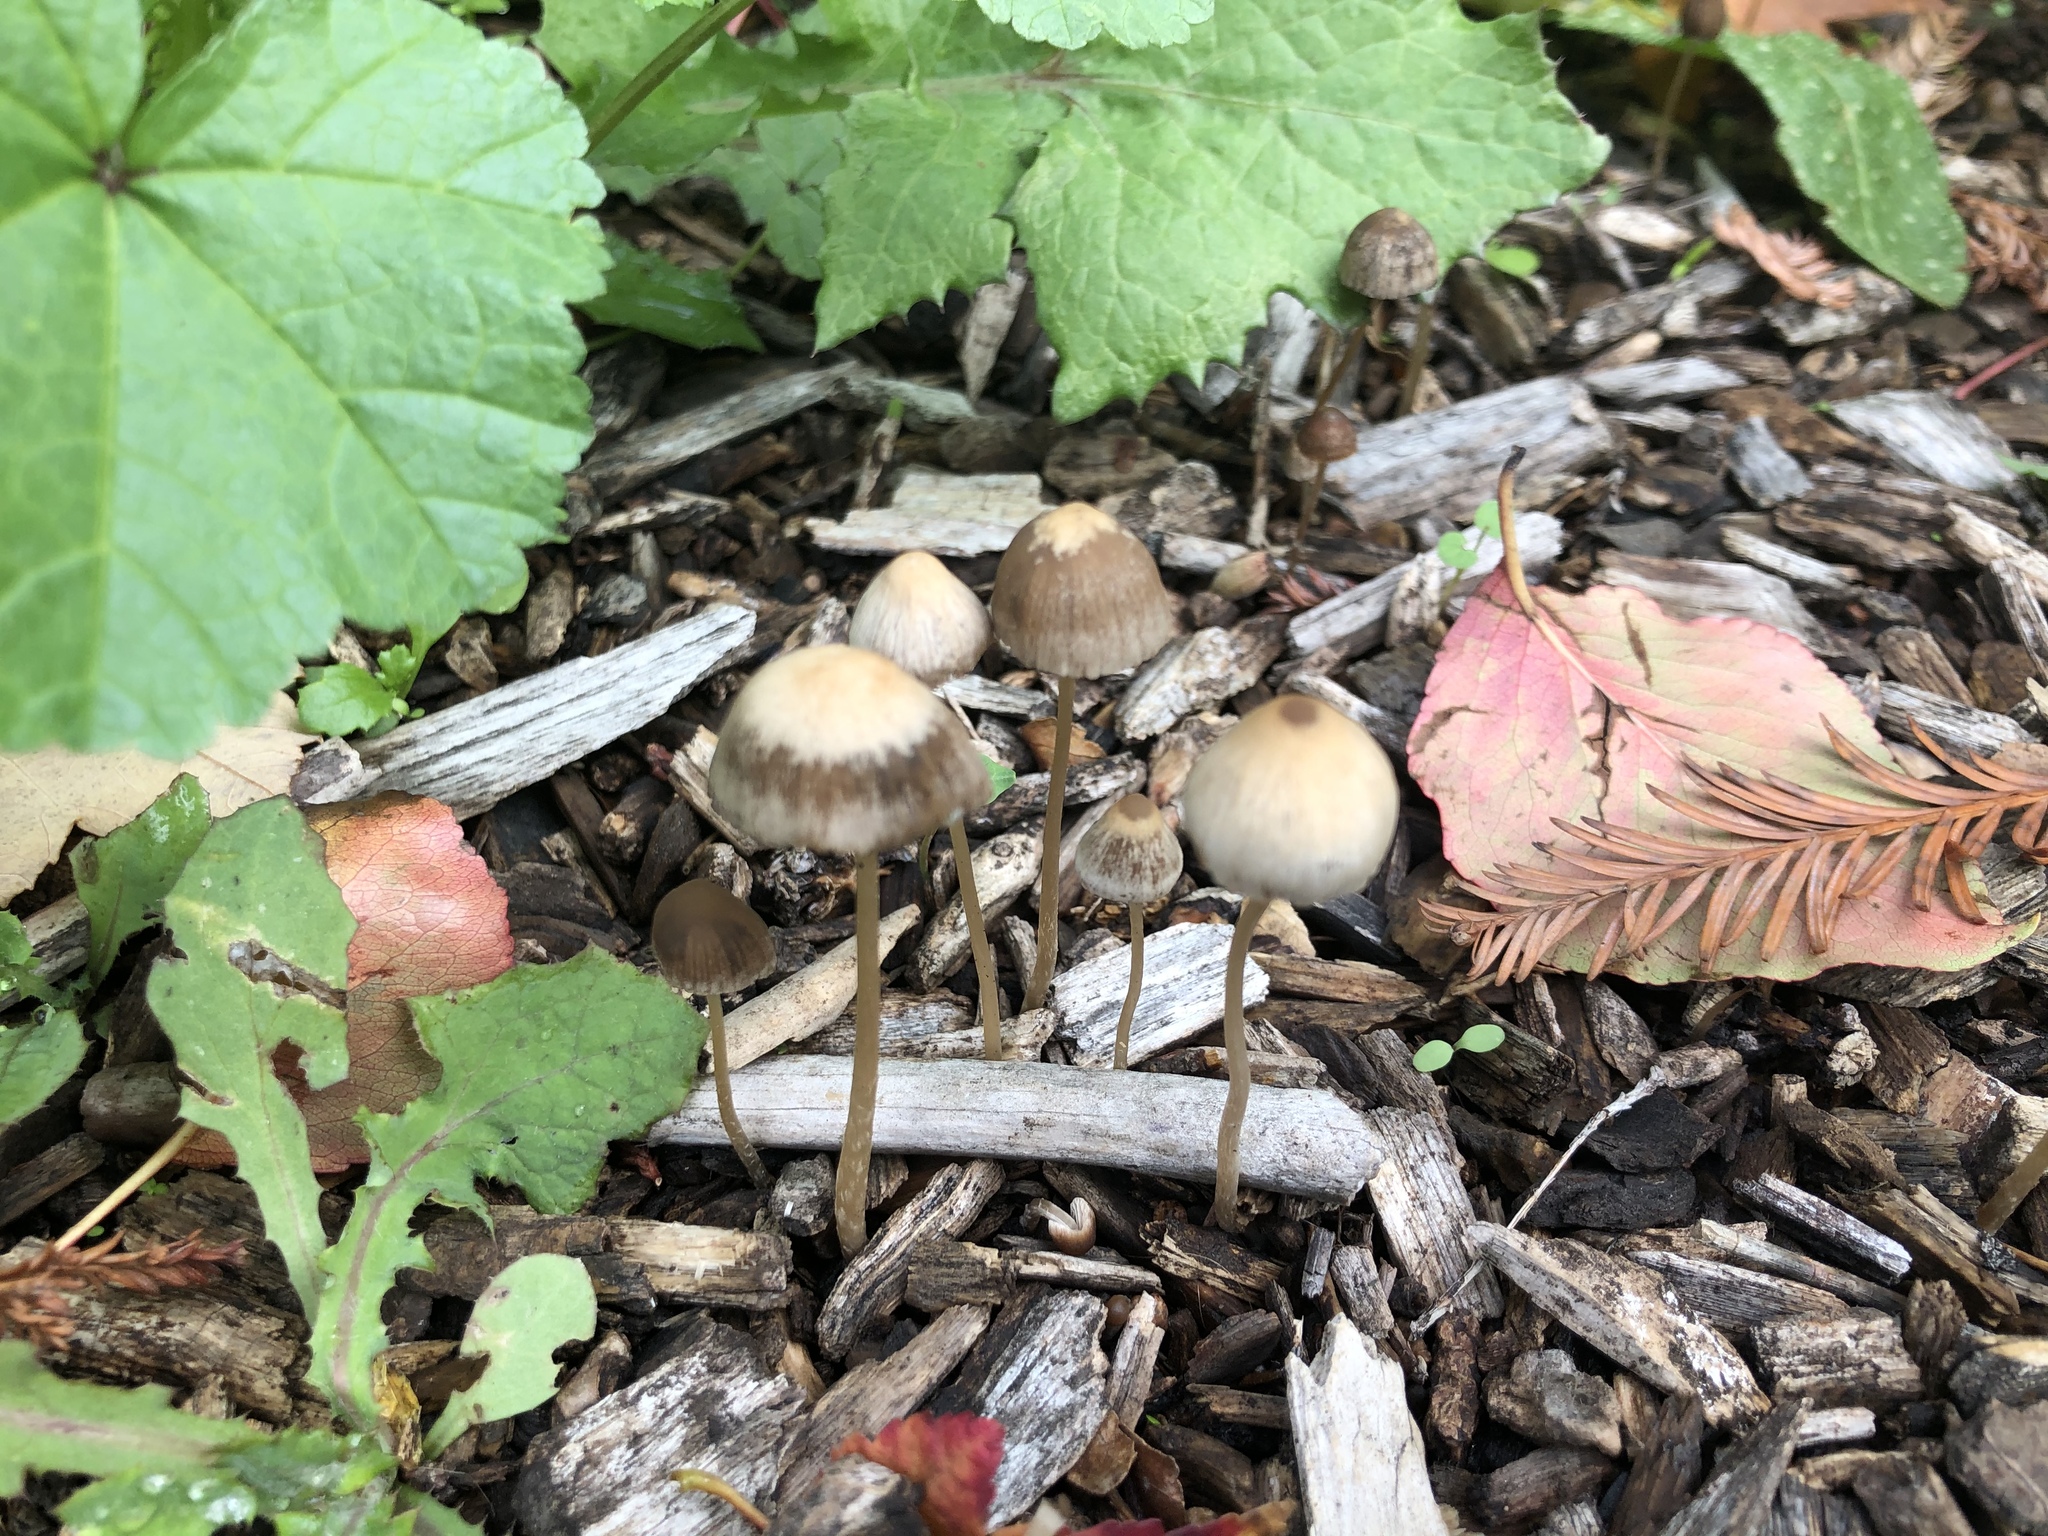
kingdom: Fungi
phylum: Basidiomycota
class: Agaricomycetes
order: Agaricales
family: Psathyrellaceae
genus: Psathyrella
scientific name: Psathyrella corrugis
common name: Red edge brittlestem
